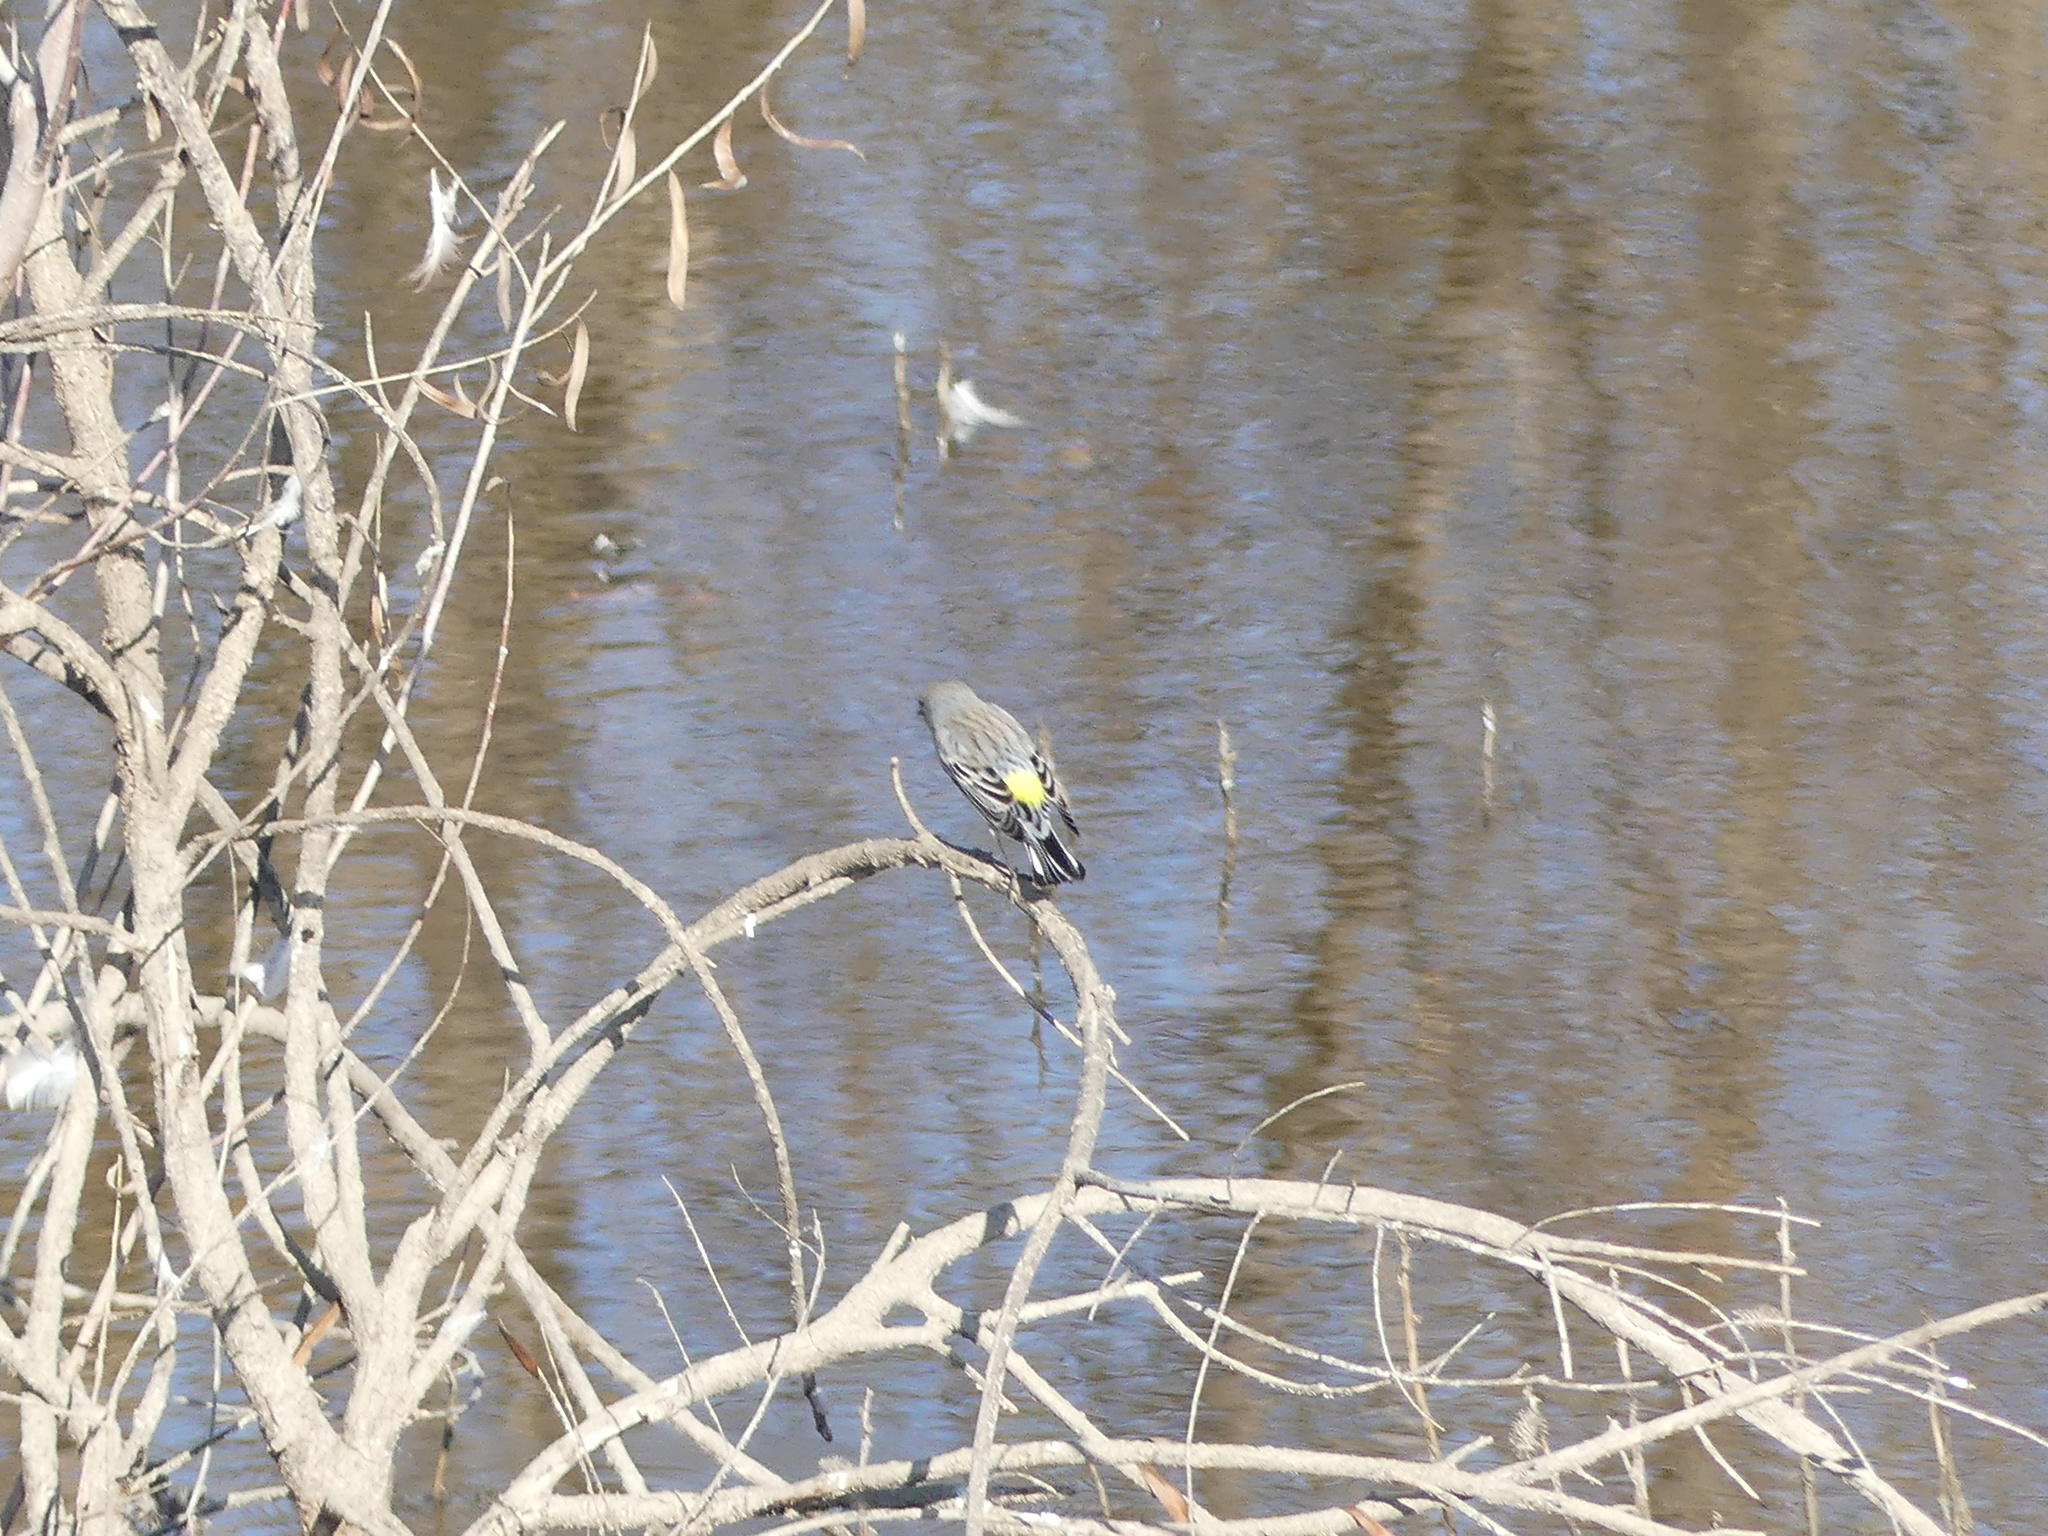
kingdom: Animalia
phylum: Chordata
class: Aves
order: Passeriformes
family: Parulidae
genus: Setophaga
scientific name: Setophaga coronata
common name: Myrtle warbler
